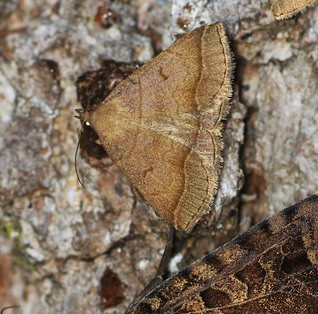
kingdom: Animalia
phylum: Arthropoda
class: Insecta
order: Lepidoptera
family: Erebidae
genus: Zanclognatha
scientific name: Zanclognatha lunalis
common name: Jubilee fan-foot
